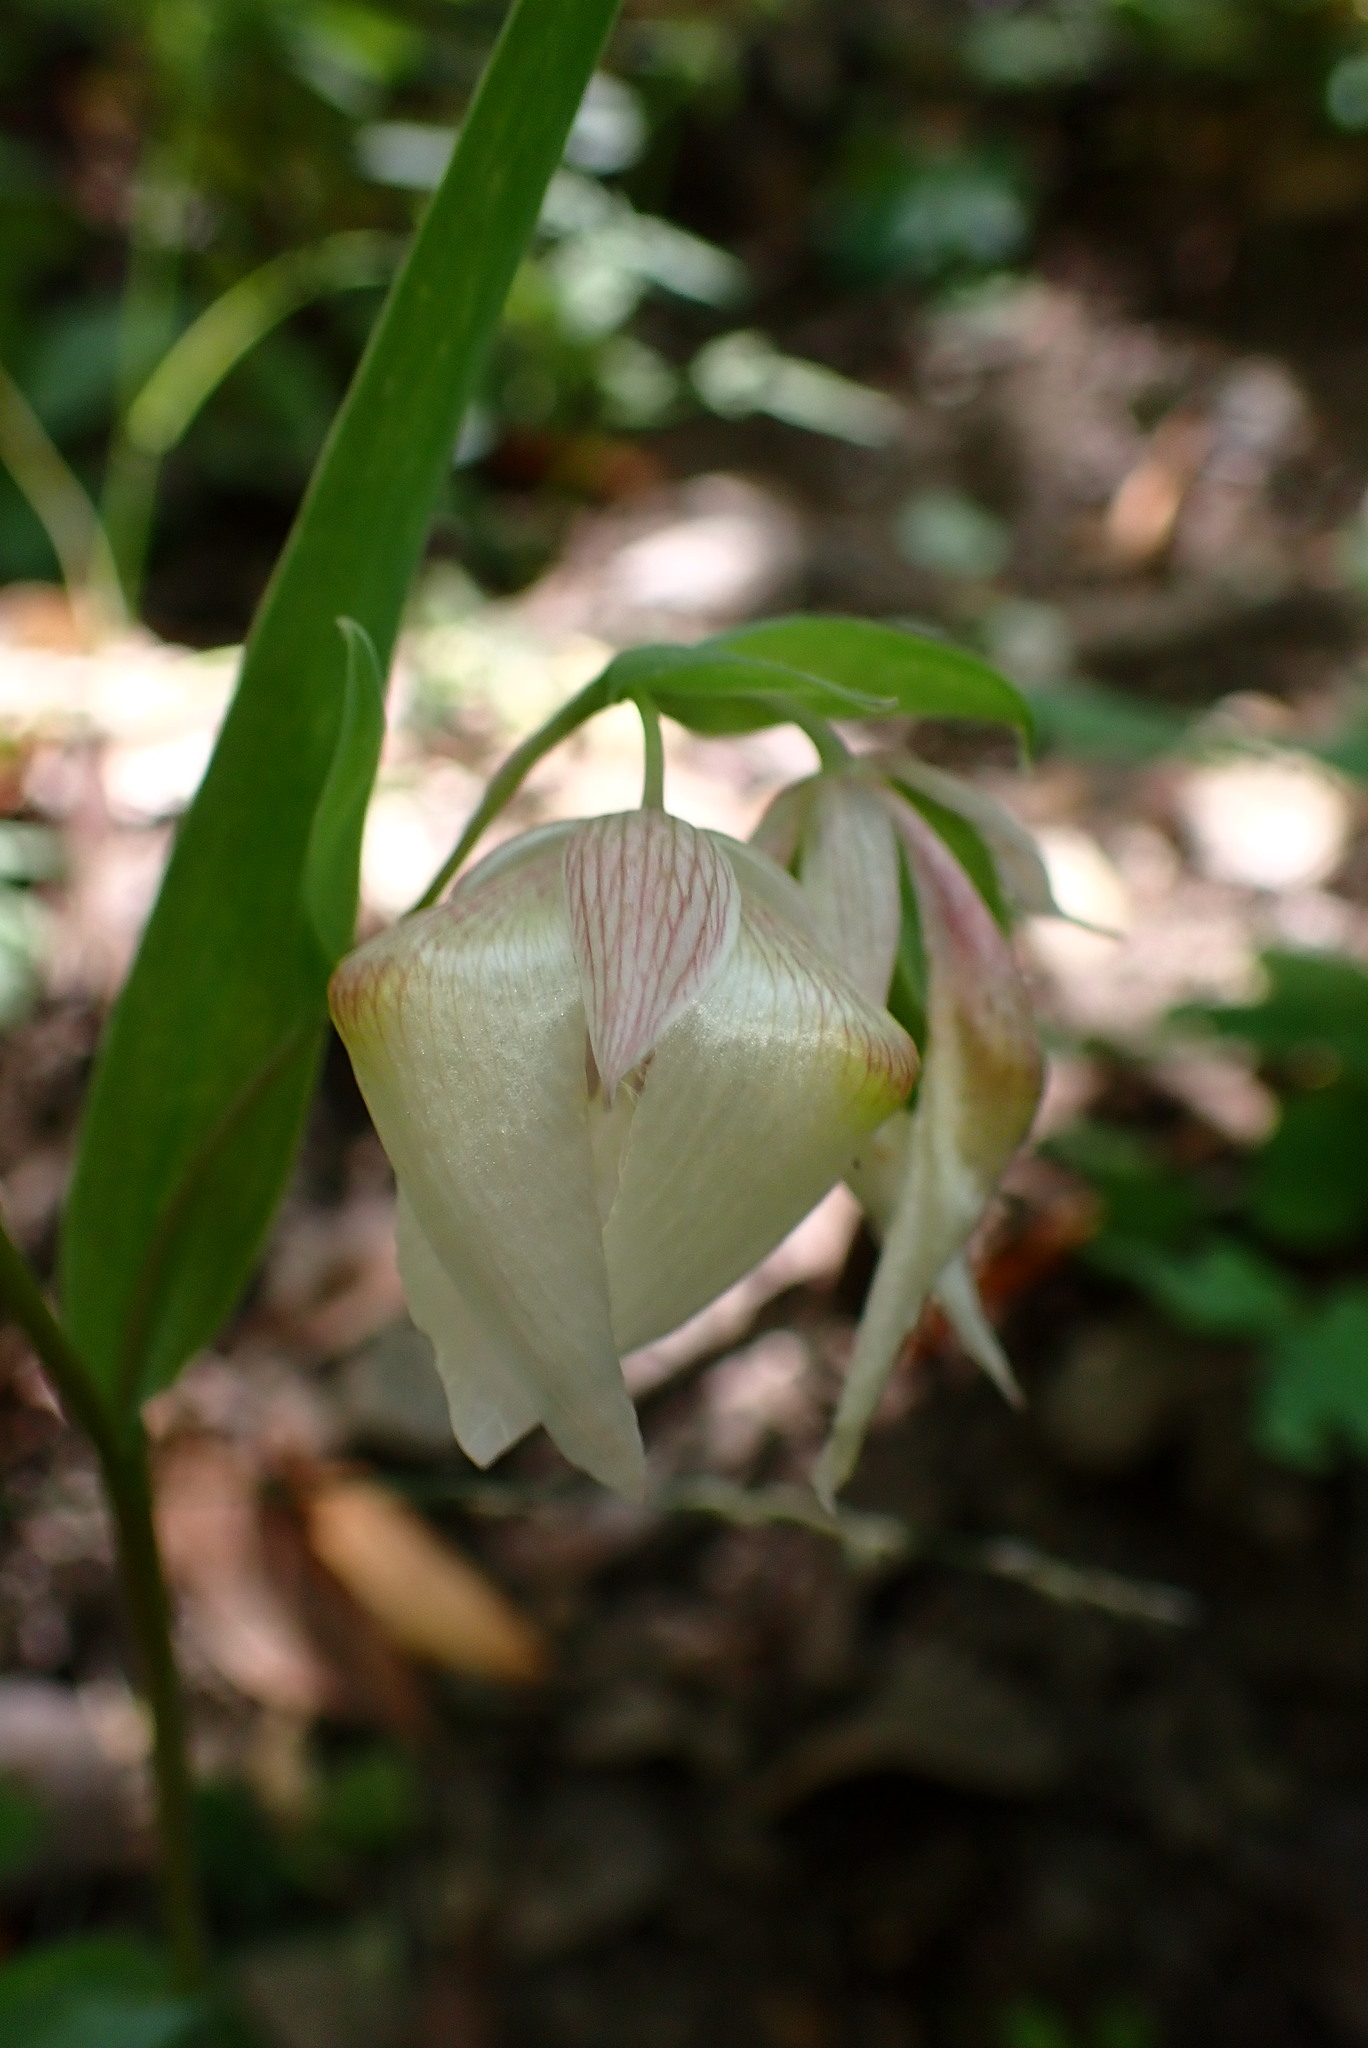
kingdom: Plantae
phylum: Tracheophyta
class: Liliopsida
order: Liliales
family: Liliaceae
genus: Calochortus
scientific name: Calochortus albus
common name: Fairy-lantern
